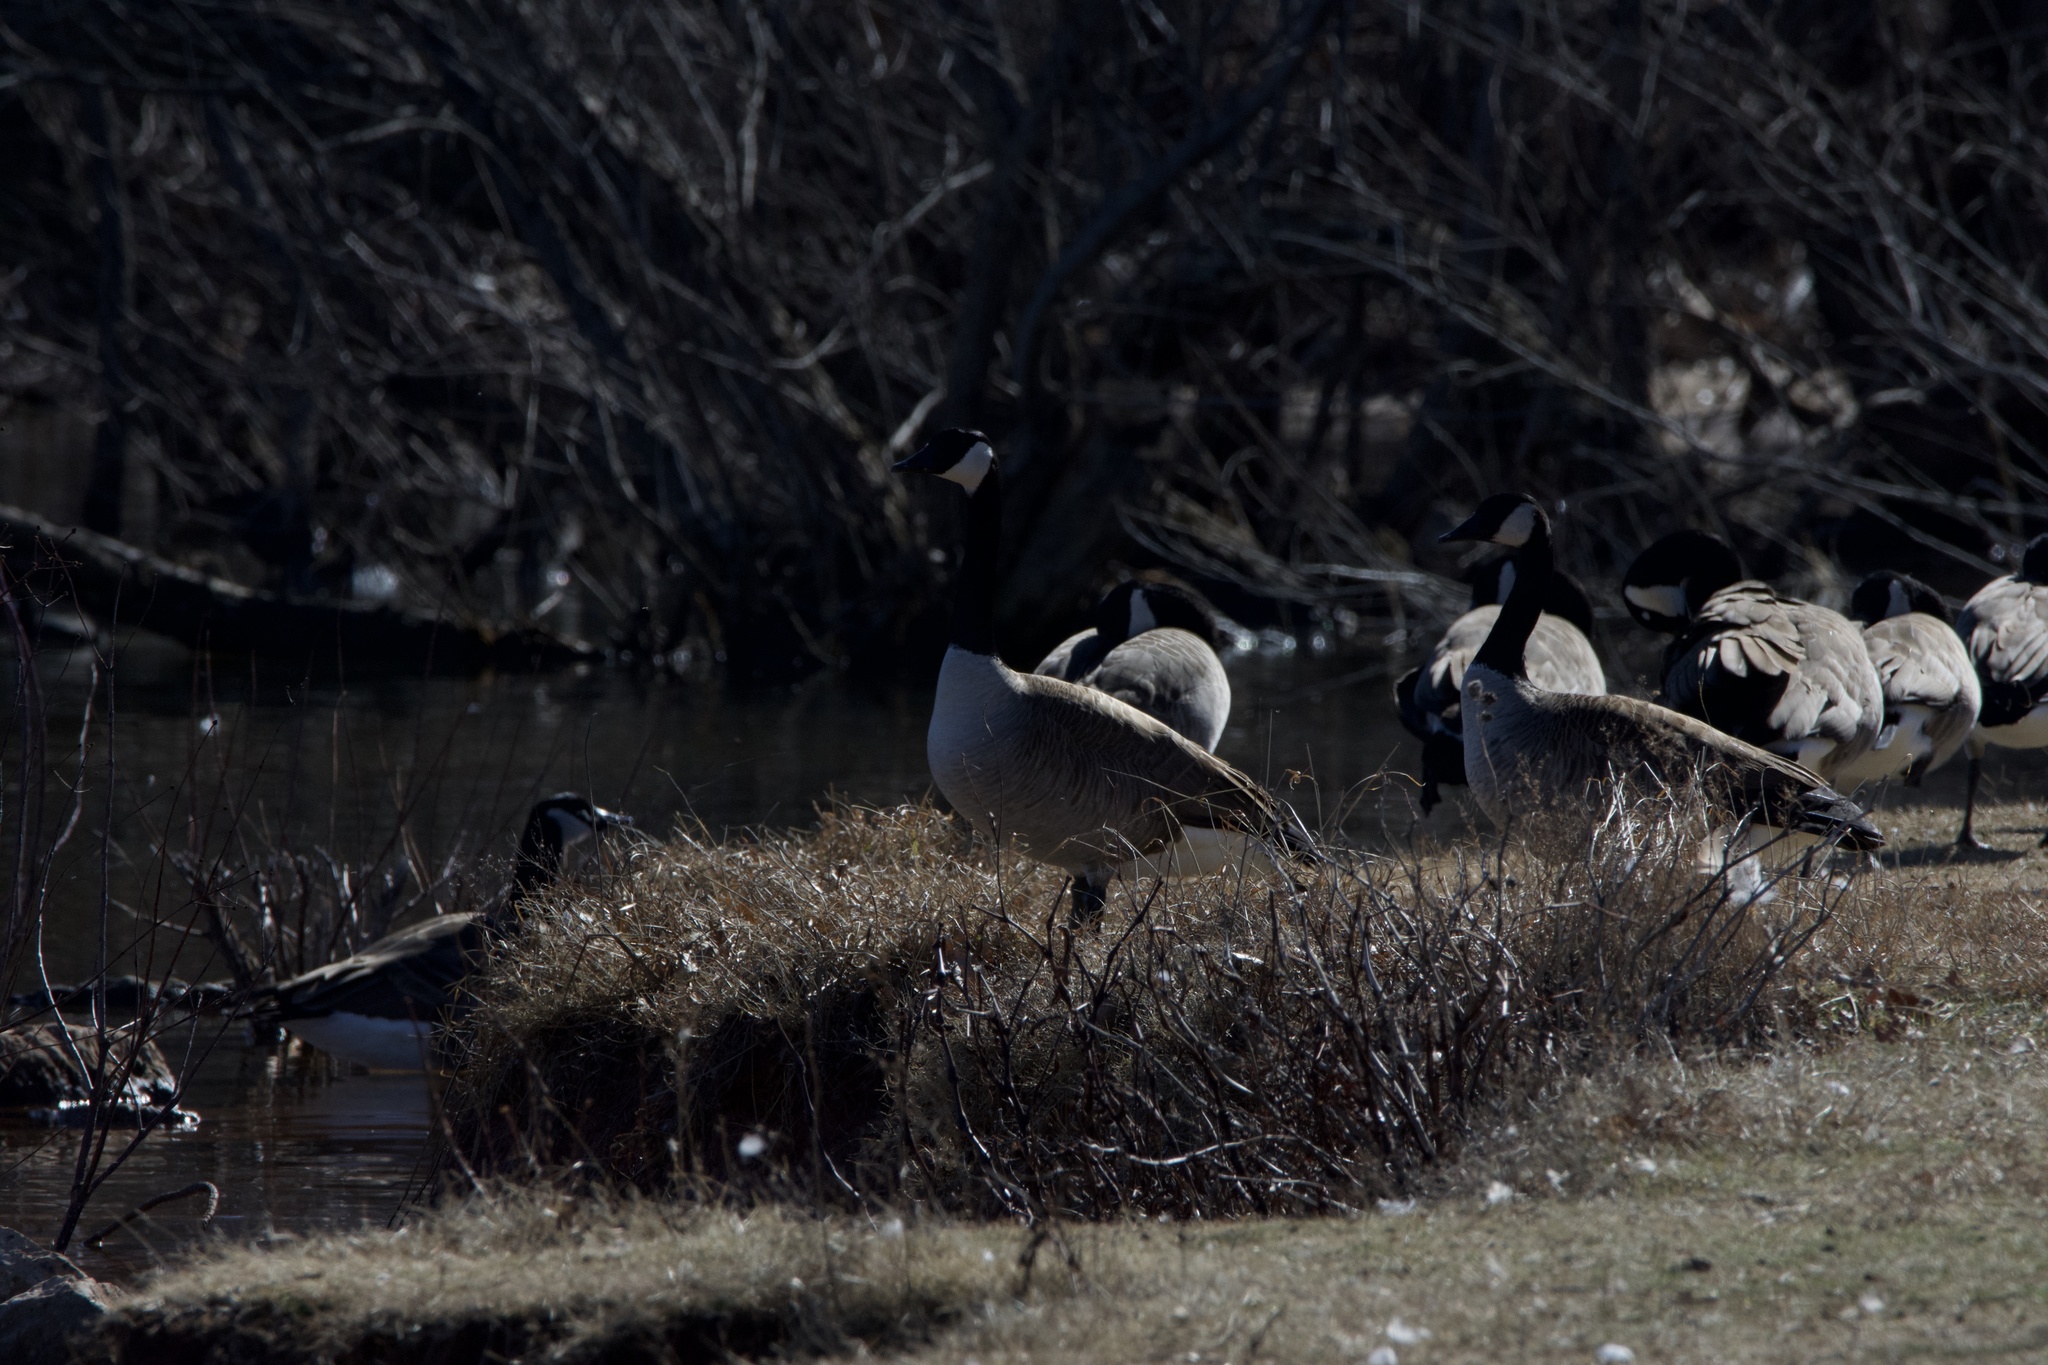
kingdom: Animalia
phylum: Chordata
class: Aves
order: Anseriformes
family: Anatidae
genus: Branta
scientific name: Branta canadensis
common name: Canada goose
